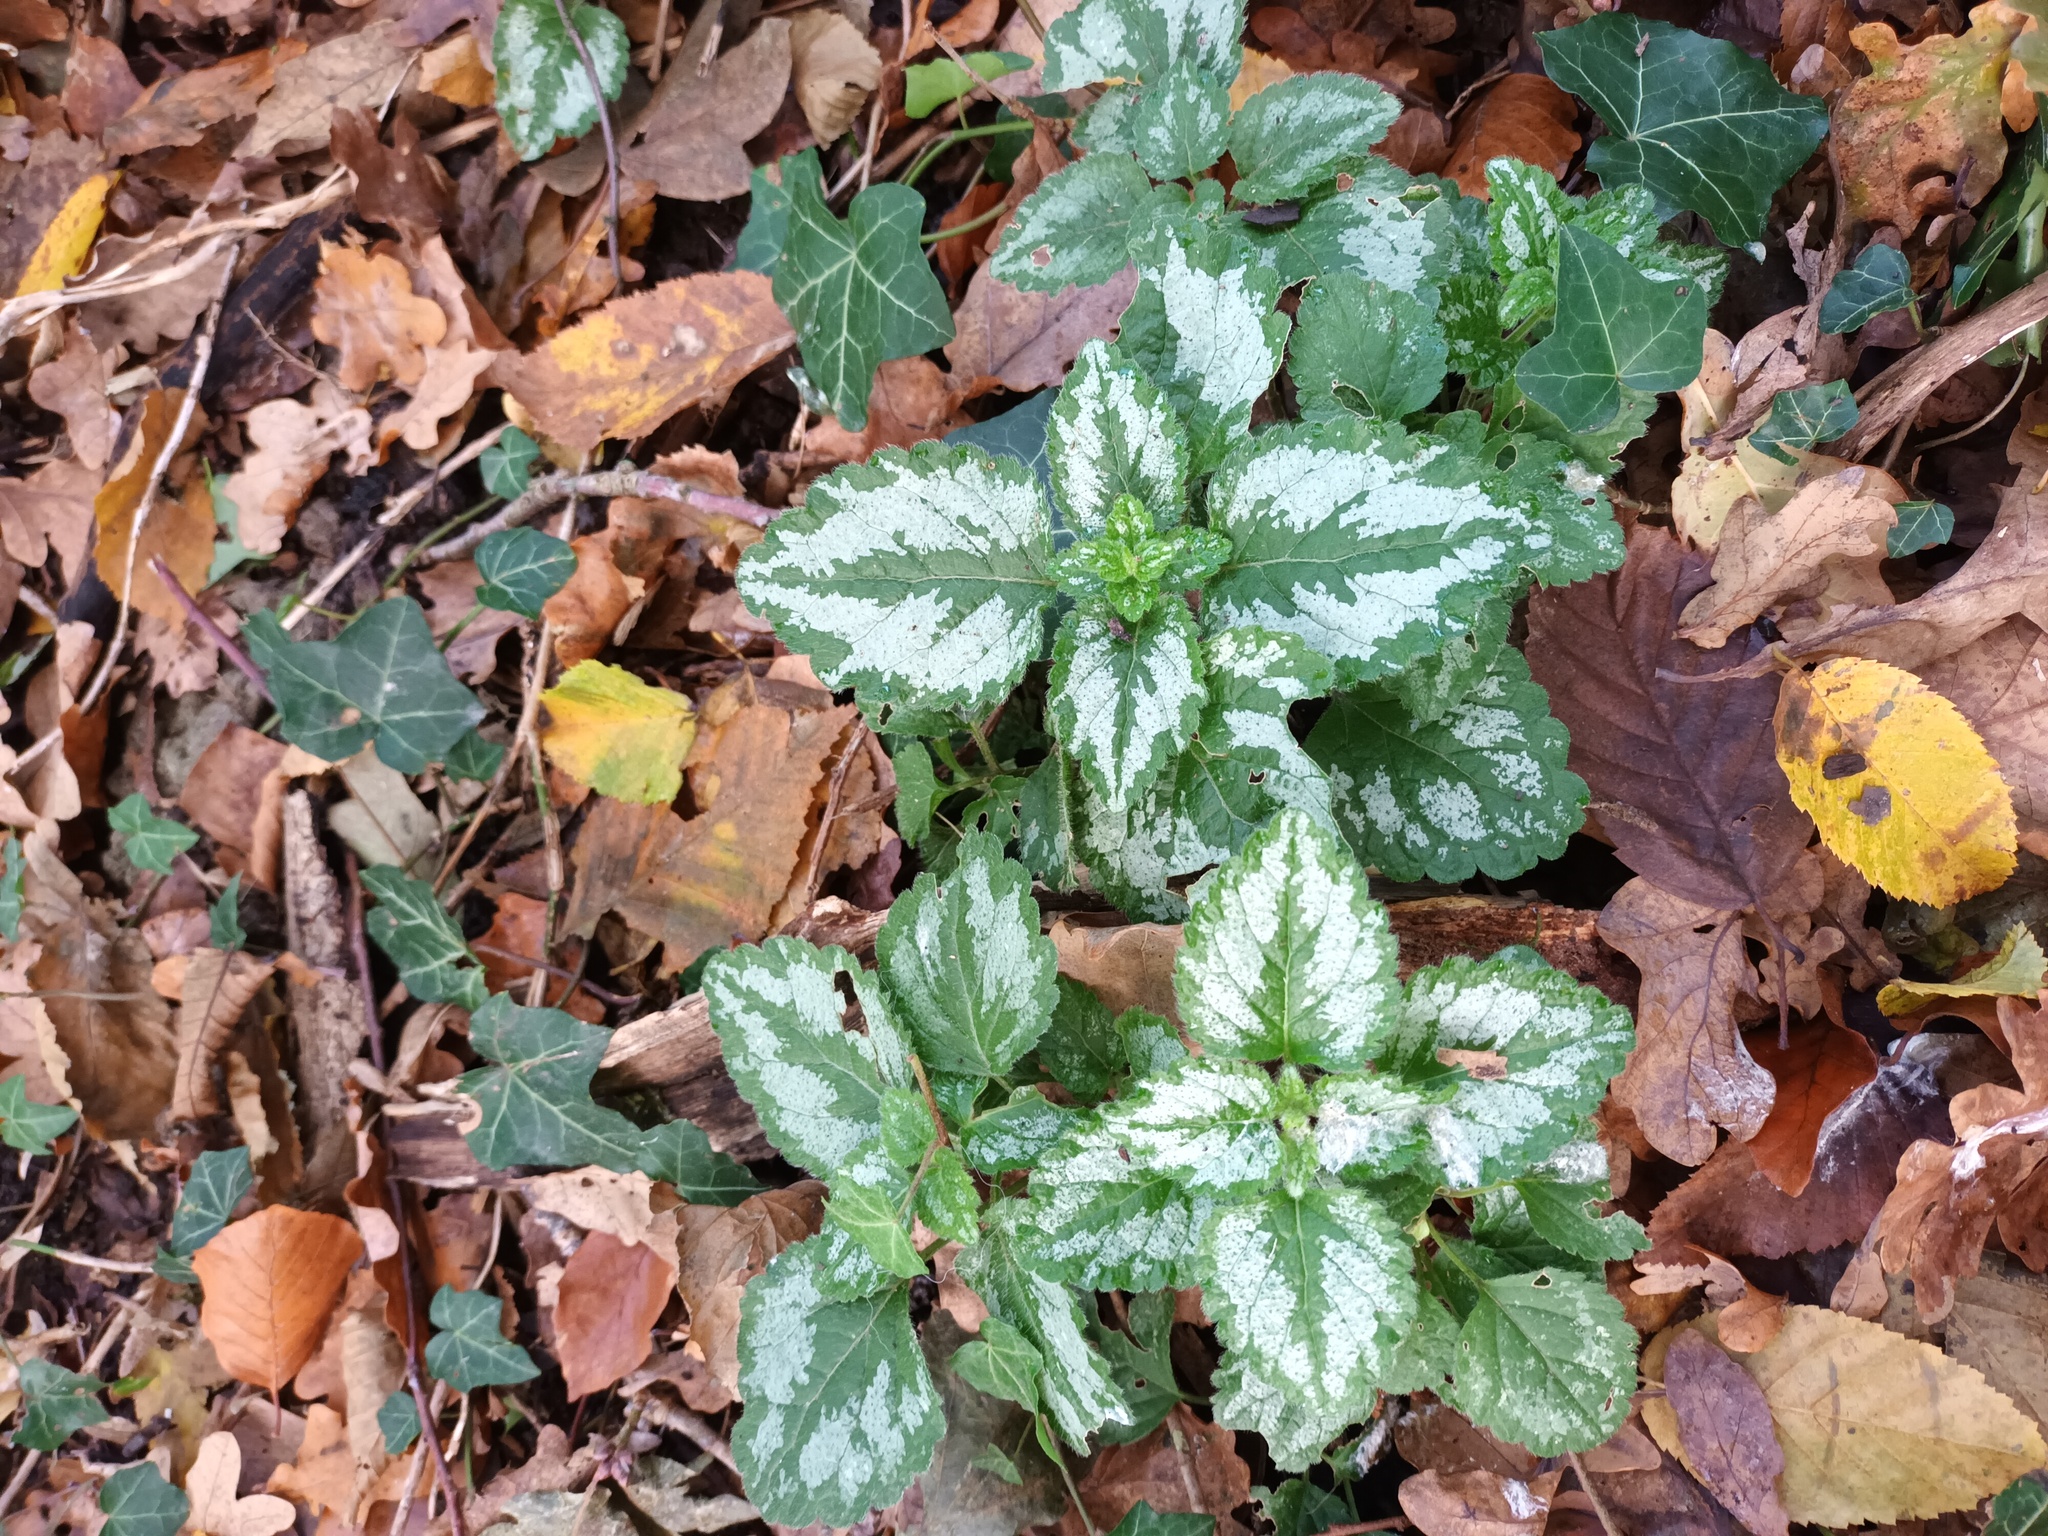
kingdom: Plantae
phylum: Tracheophyta
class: Magnoliopsida
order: Lamiales
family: Lamiaceae
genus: Lamium
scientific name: Lamium galeobdolon
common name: Yellow archangel
